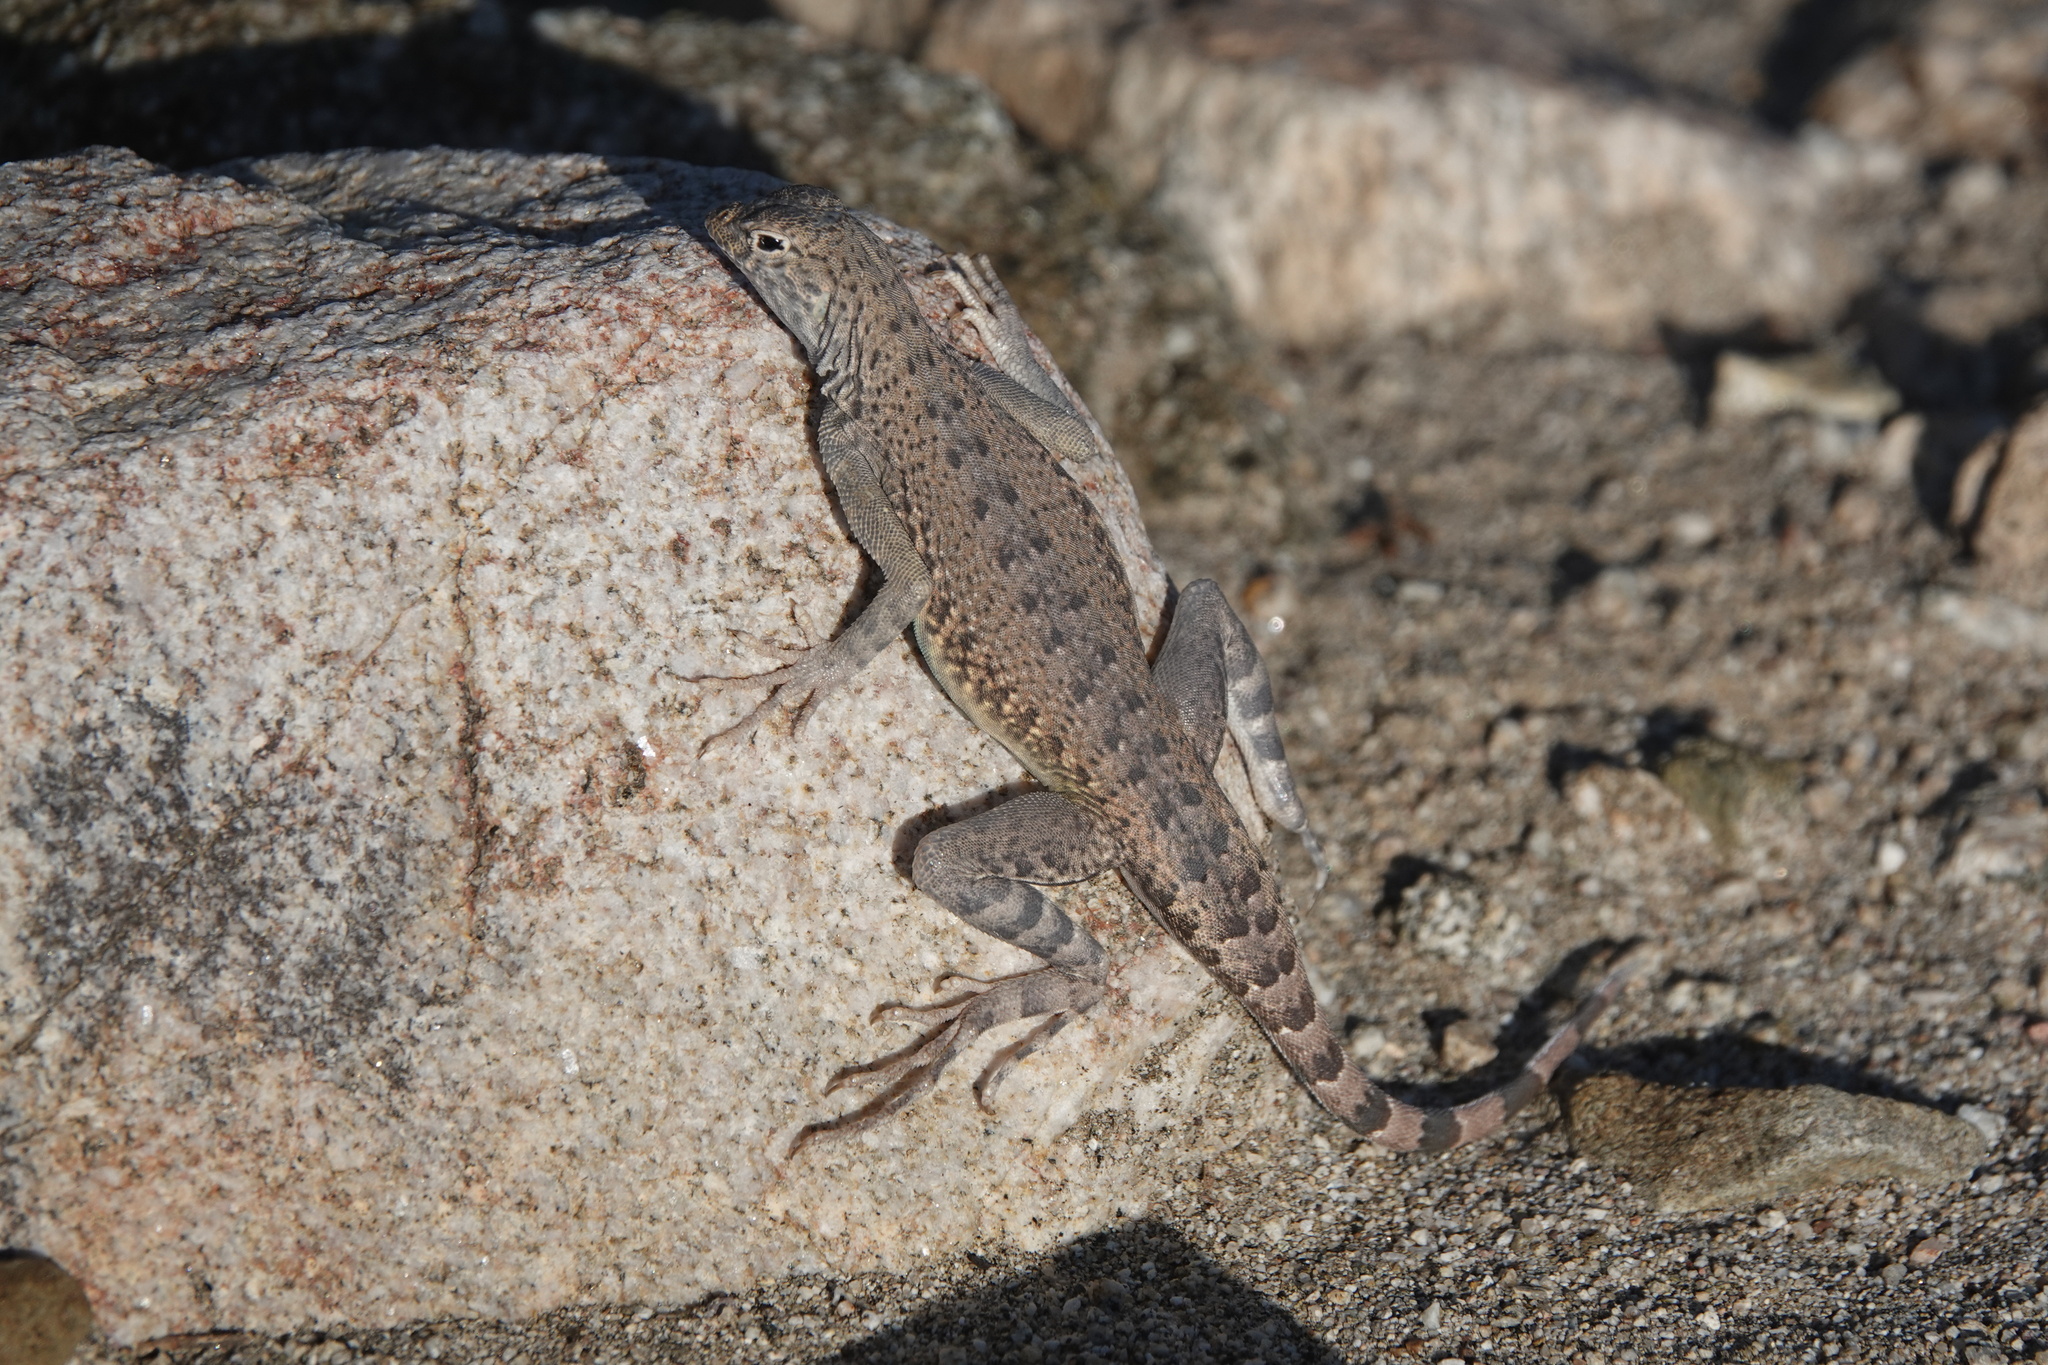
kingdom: Animalia
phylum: Chordata
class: Squamata
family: Phrynosomatidae
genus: Callisaurus
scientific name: Callisaurus draconoides
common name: Zebra-tailed lizard
